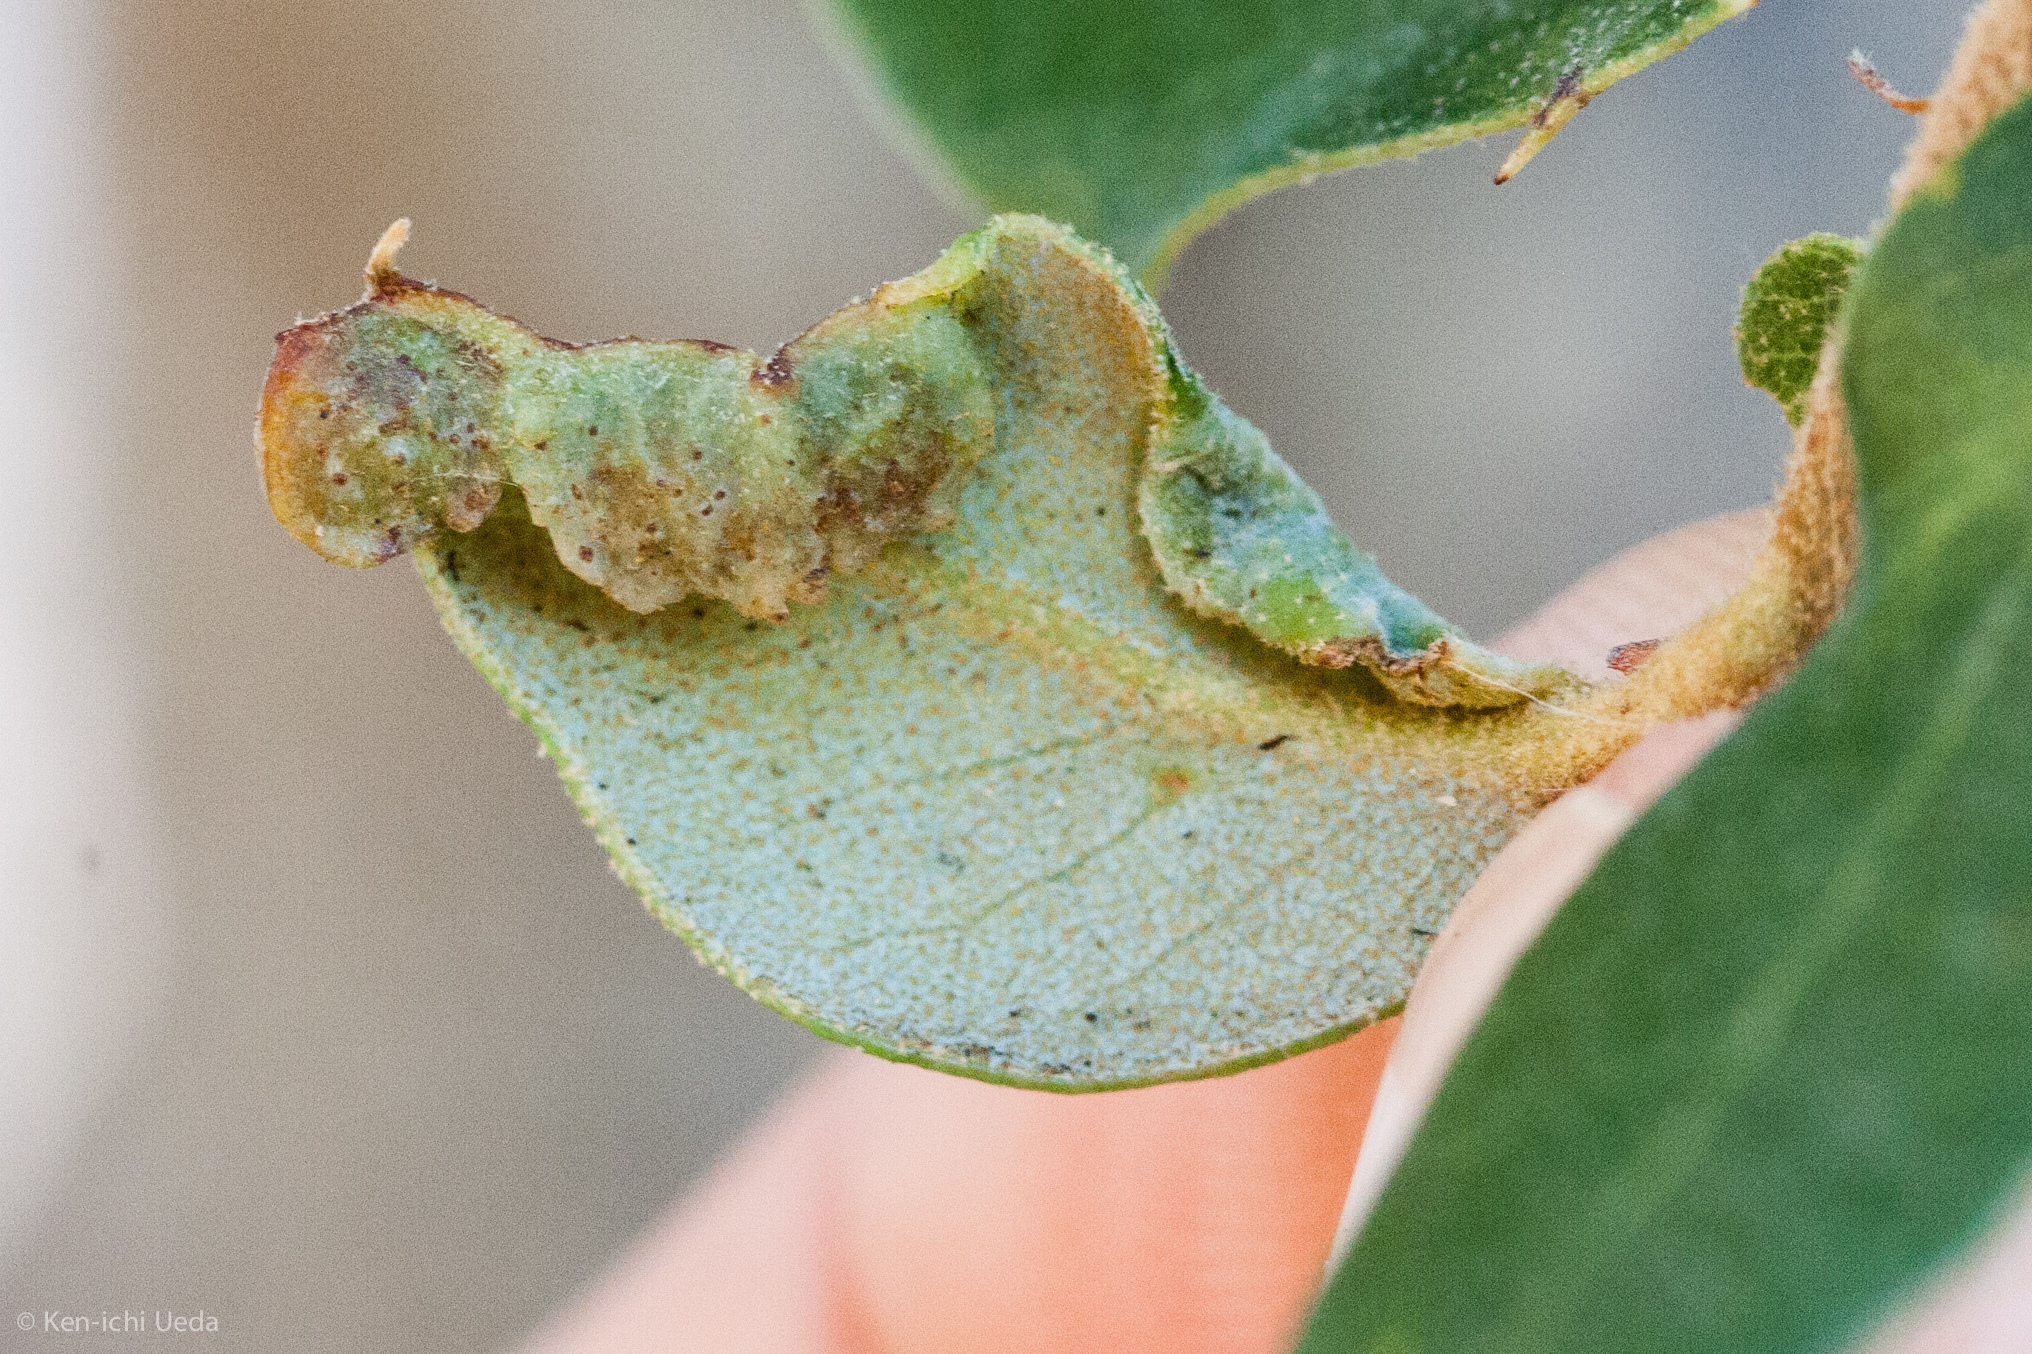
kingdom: Animalia
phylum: Arthropoda
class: Insecta
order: Diptera
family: Cecidomyiidae
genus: Dasineura
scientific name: Dasineura silvestrii
